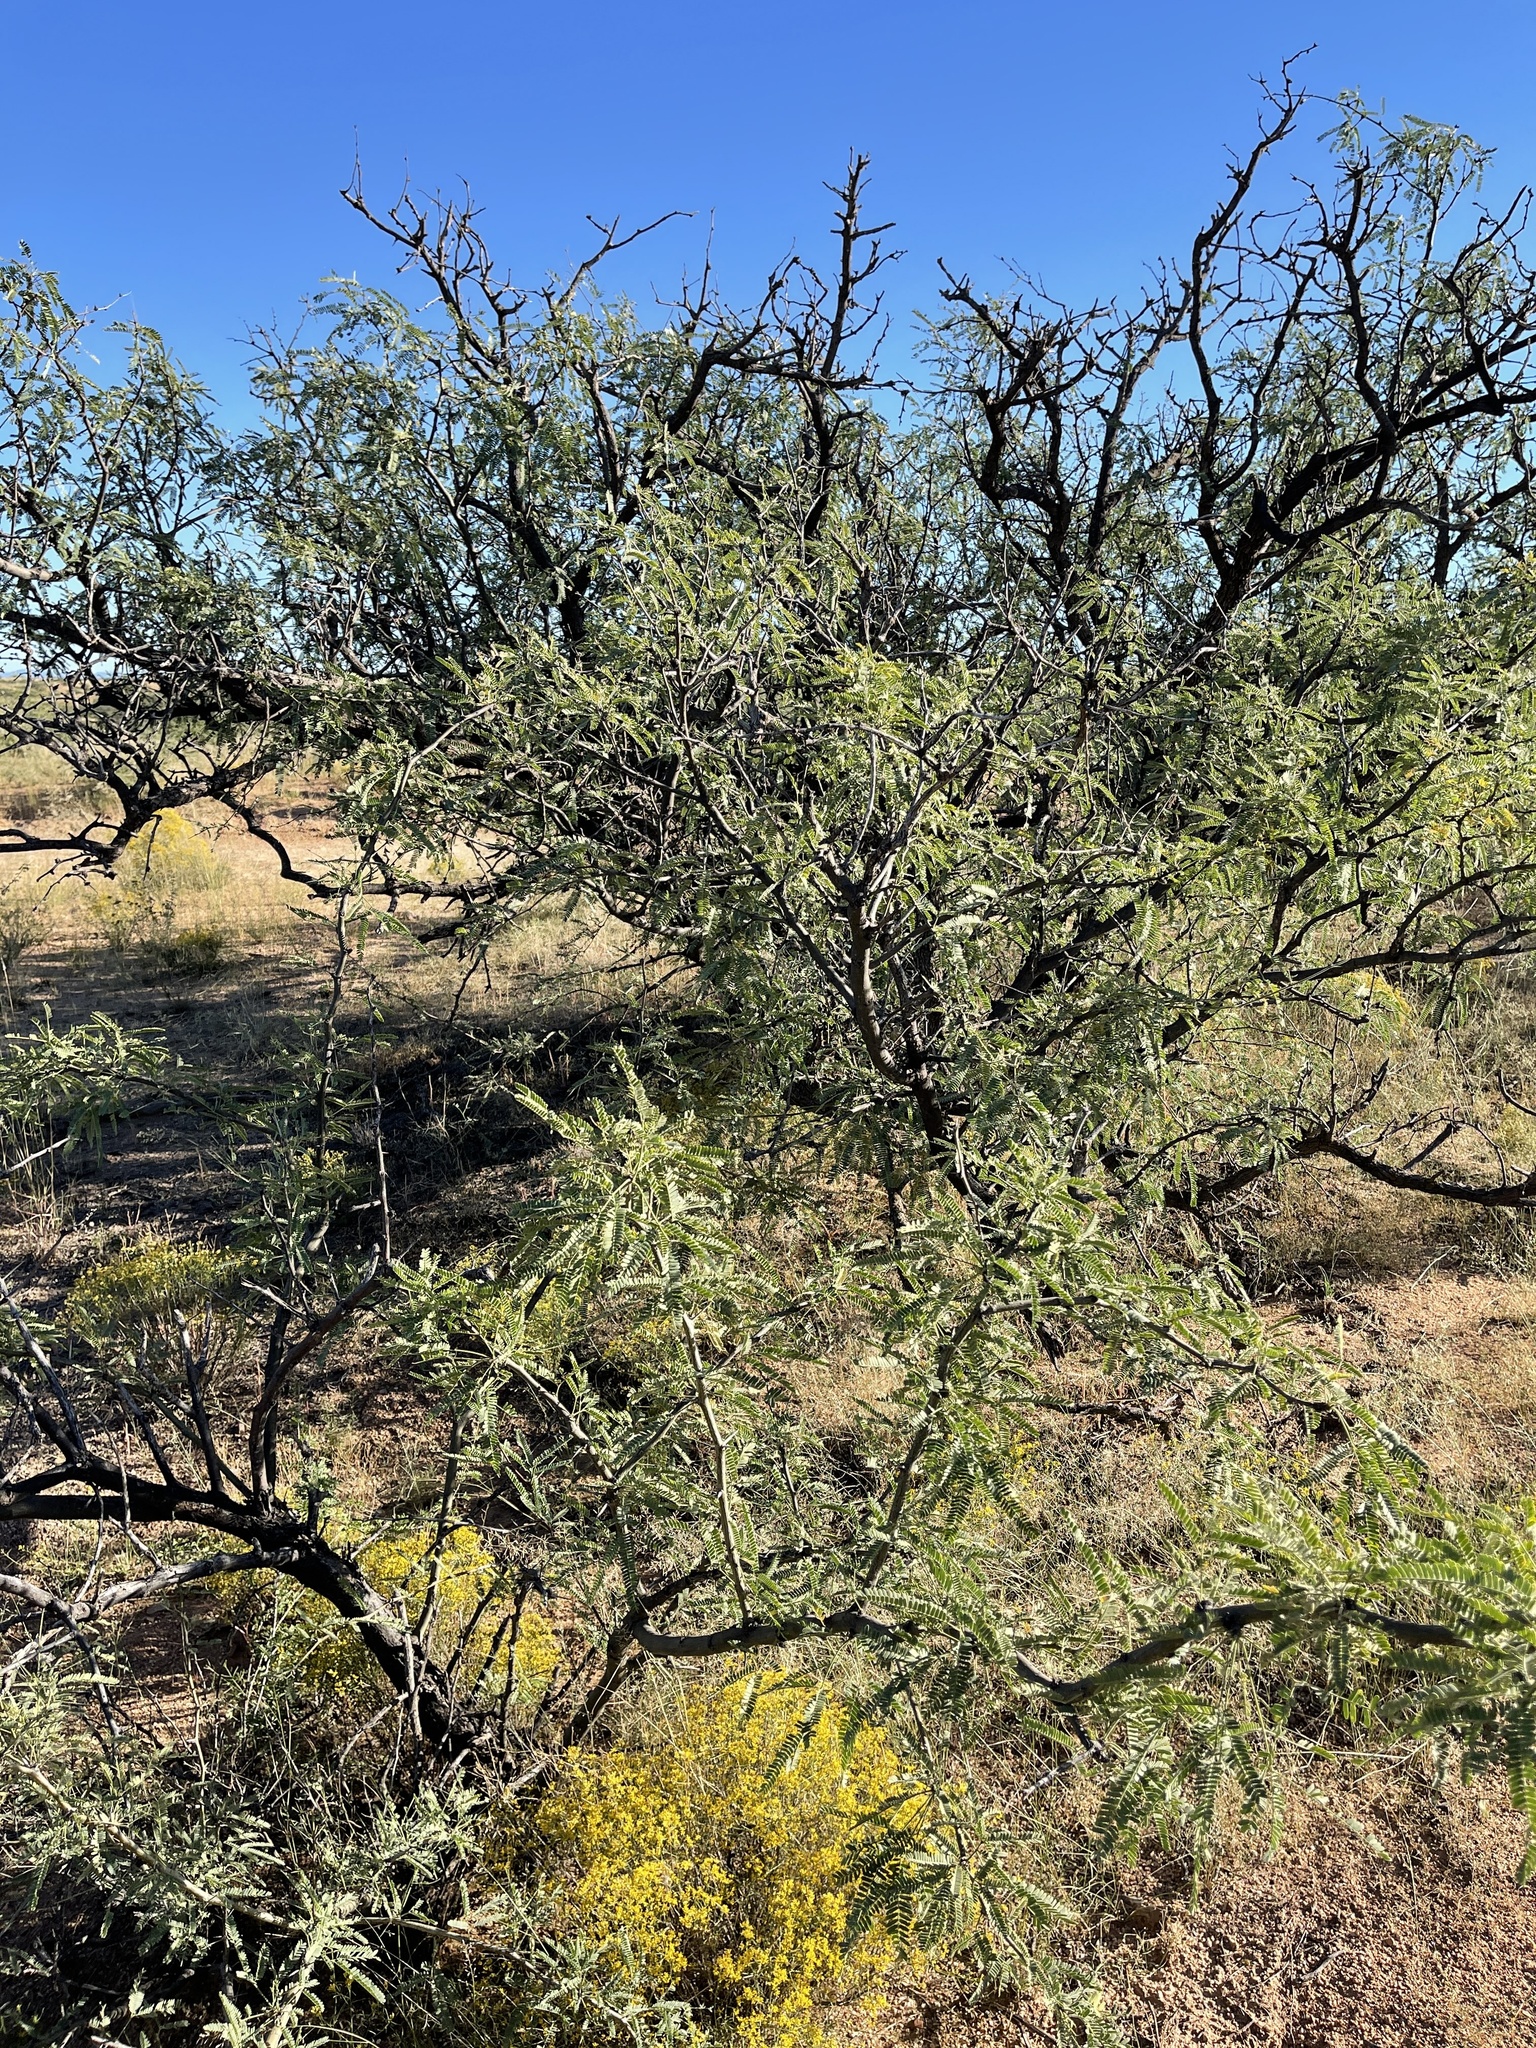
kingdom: Plantae
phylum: Tracheophyta
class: Magnoliopsida
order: Fabales
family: Fabaceae
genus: Prosopis
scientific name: Prosopis velutina
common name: Velvet mesquite
